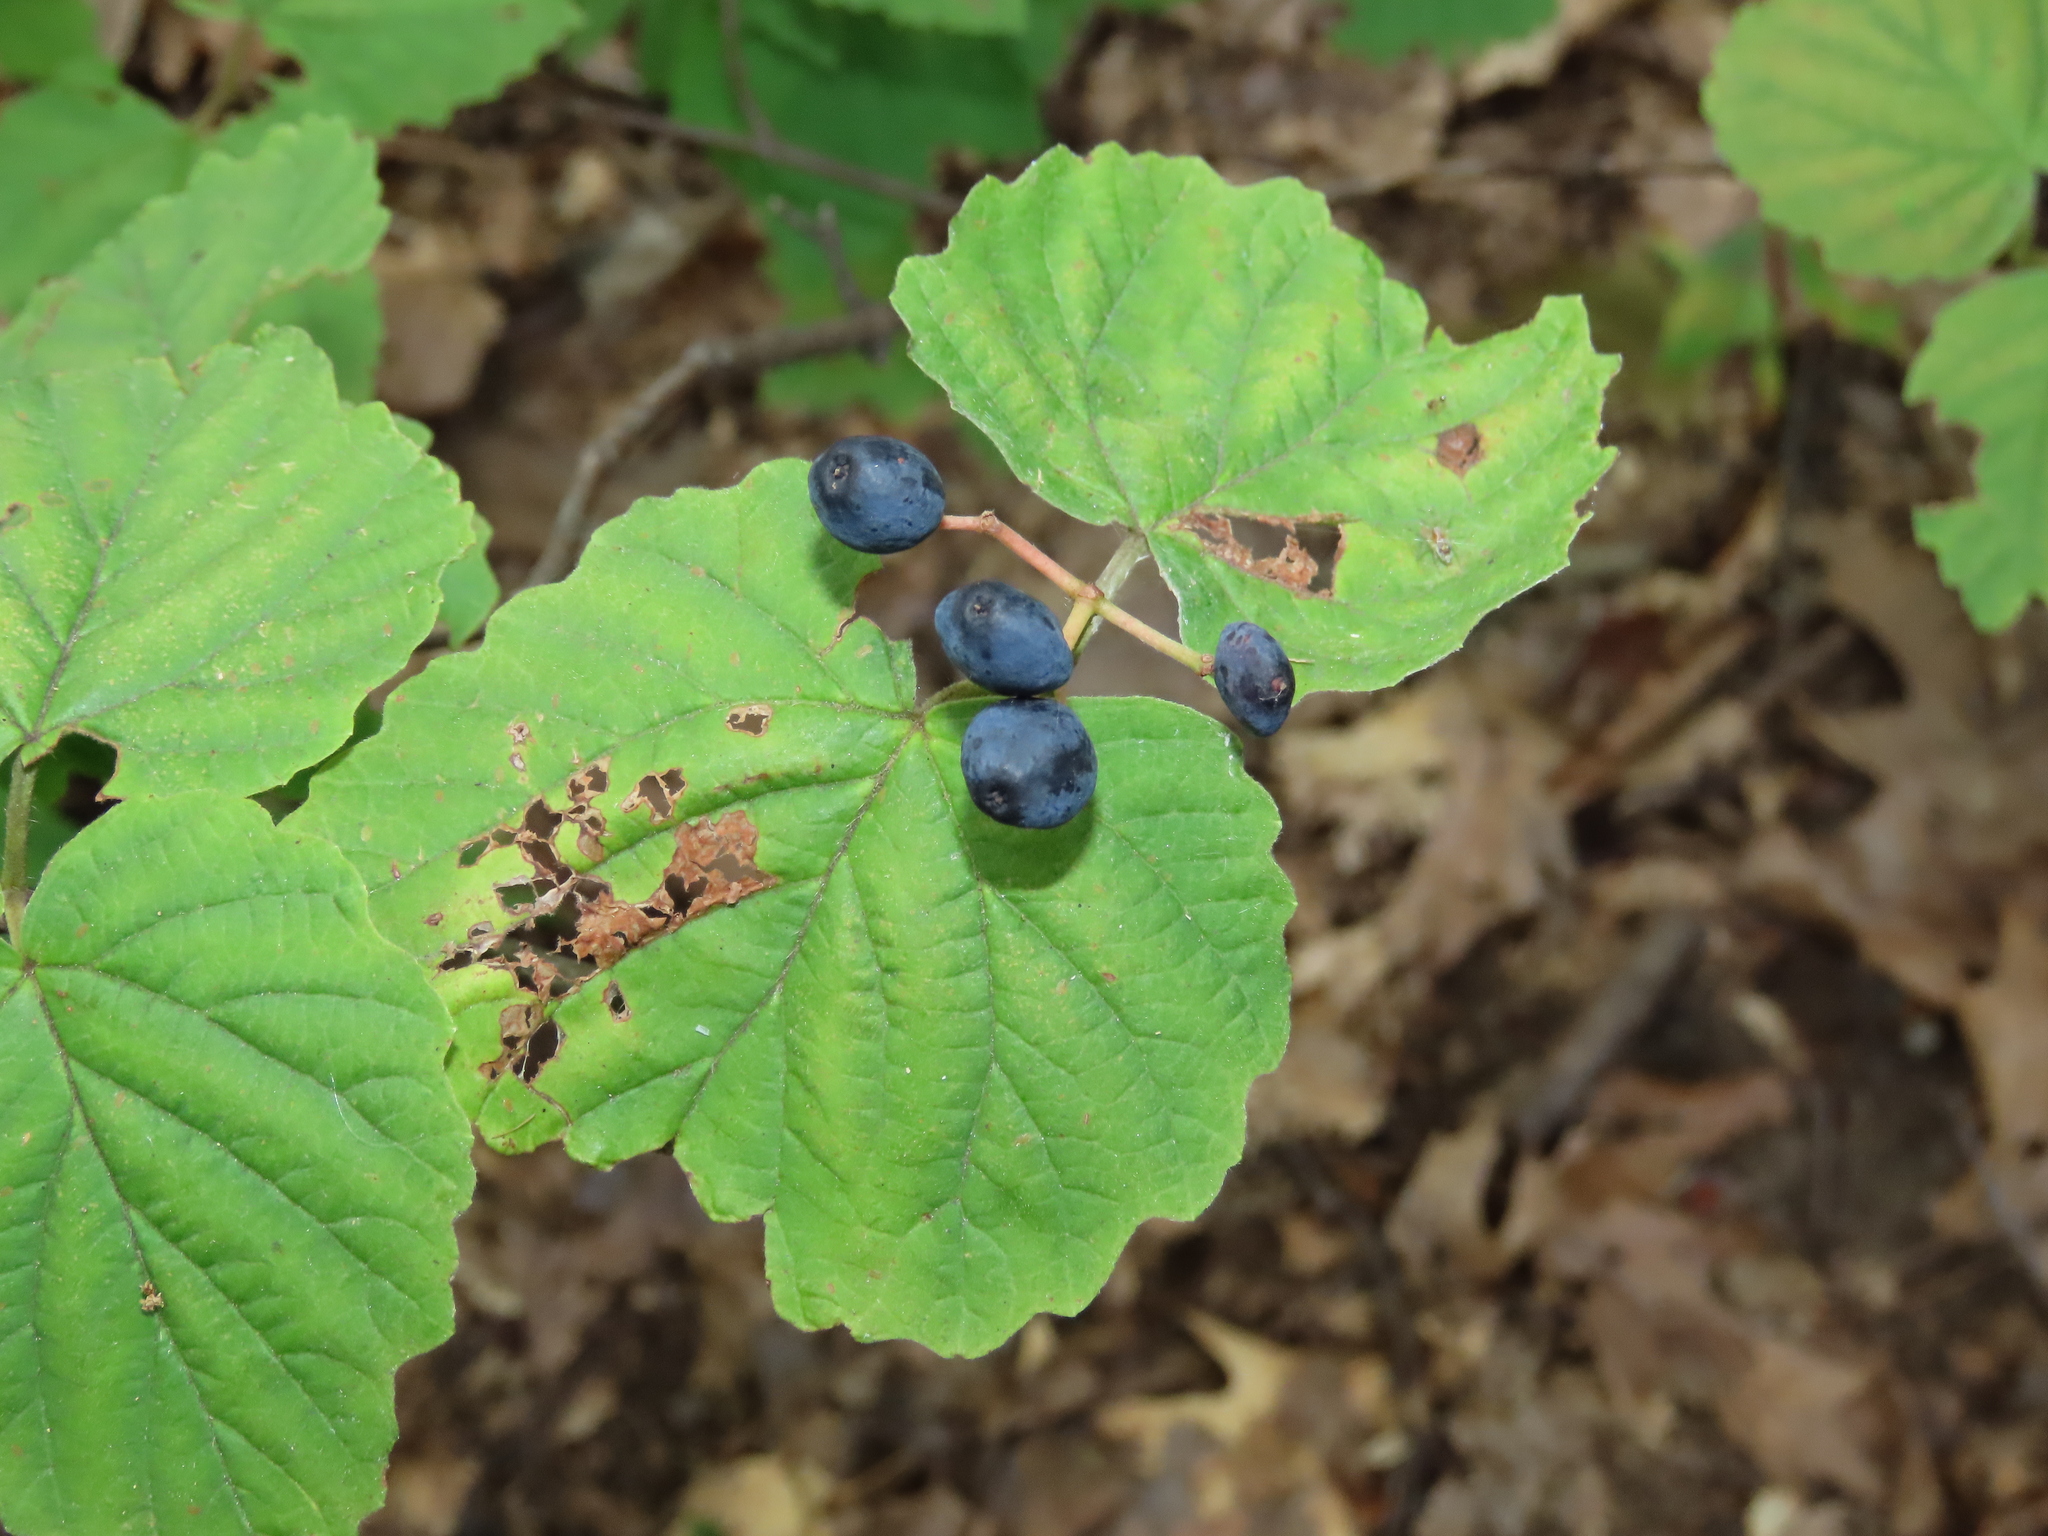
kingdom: Plantae
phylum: Tracheophyta
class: Magnoliopsida
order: Dipsacales
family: Viburnaceae
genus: Viburnum
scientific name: Viburnum acerifolium
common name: Dockmackie
